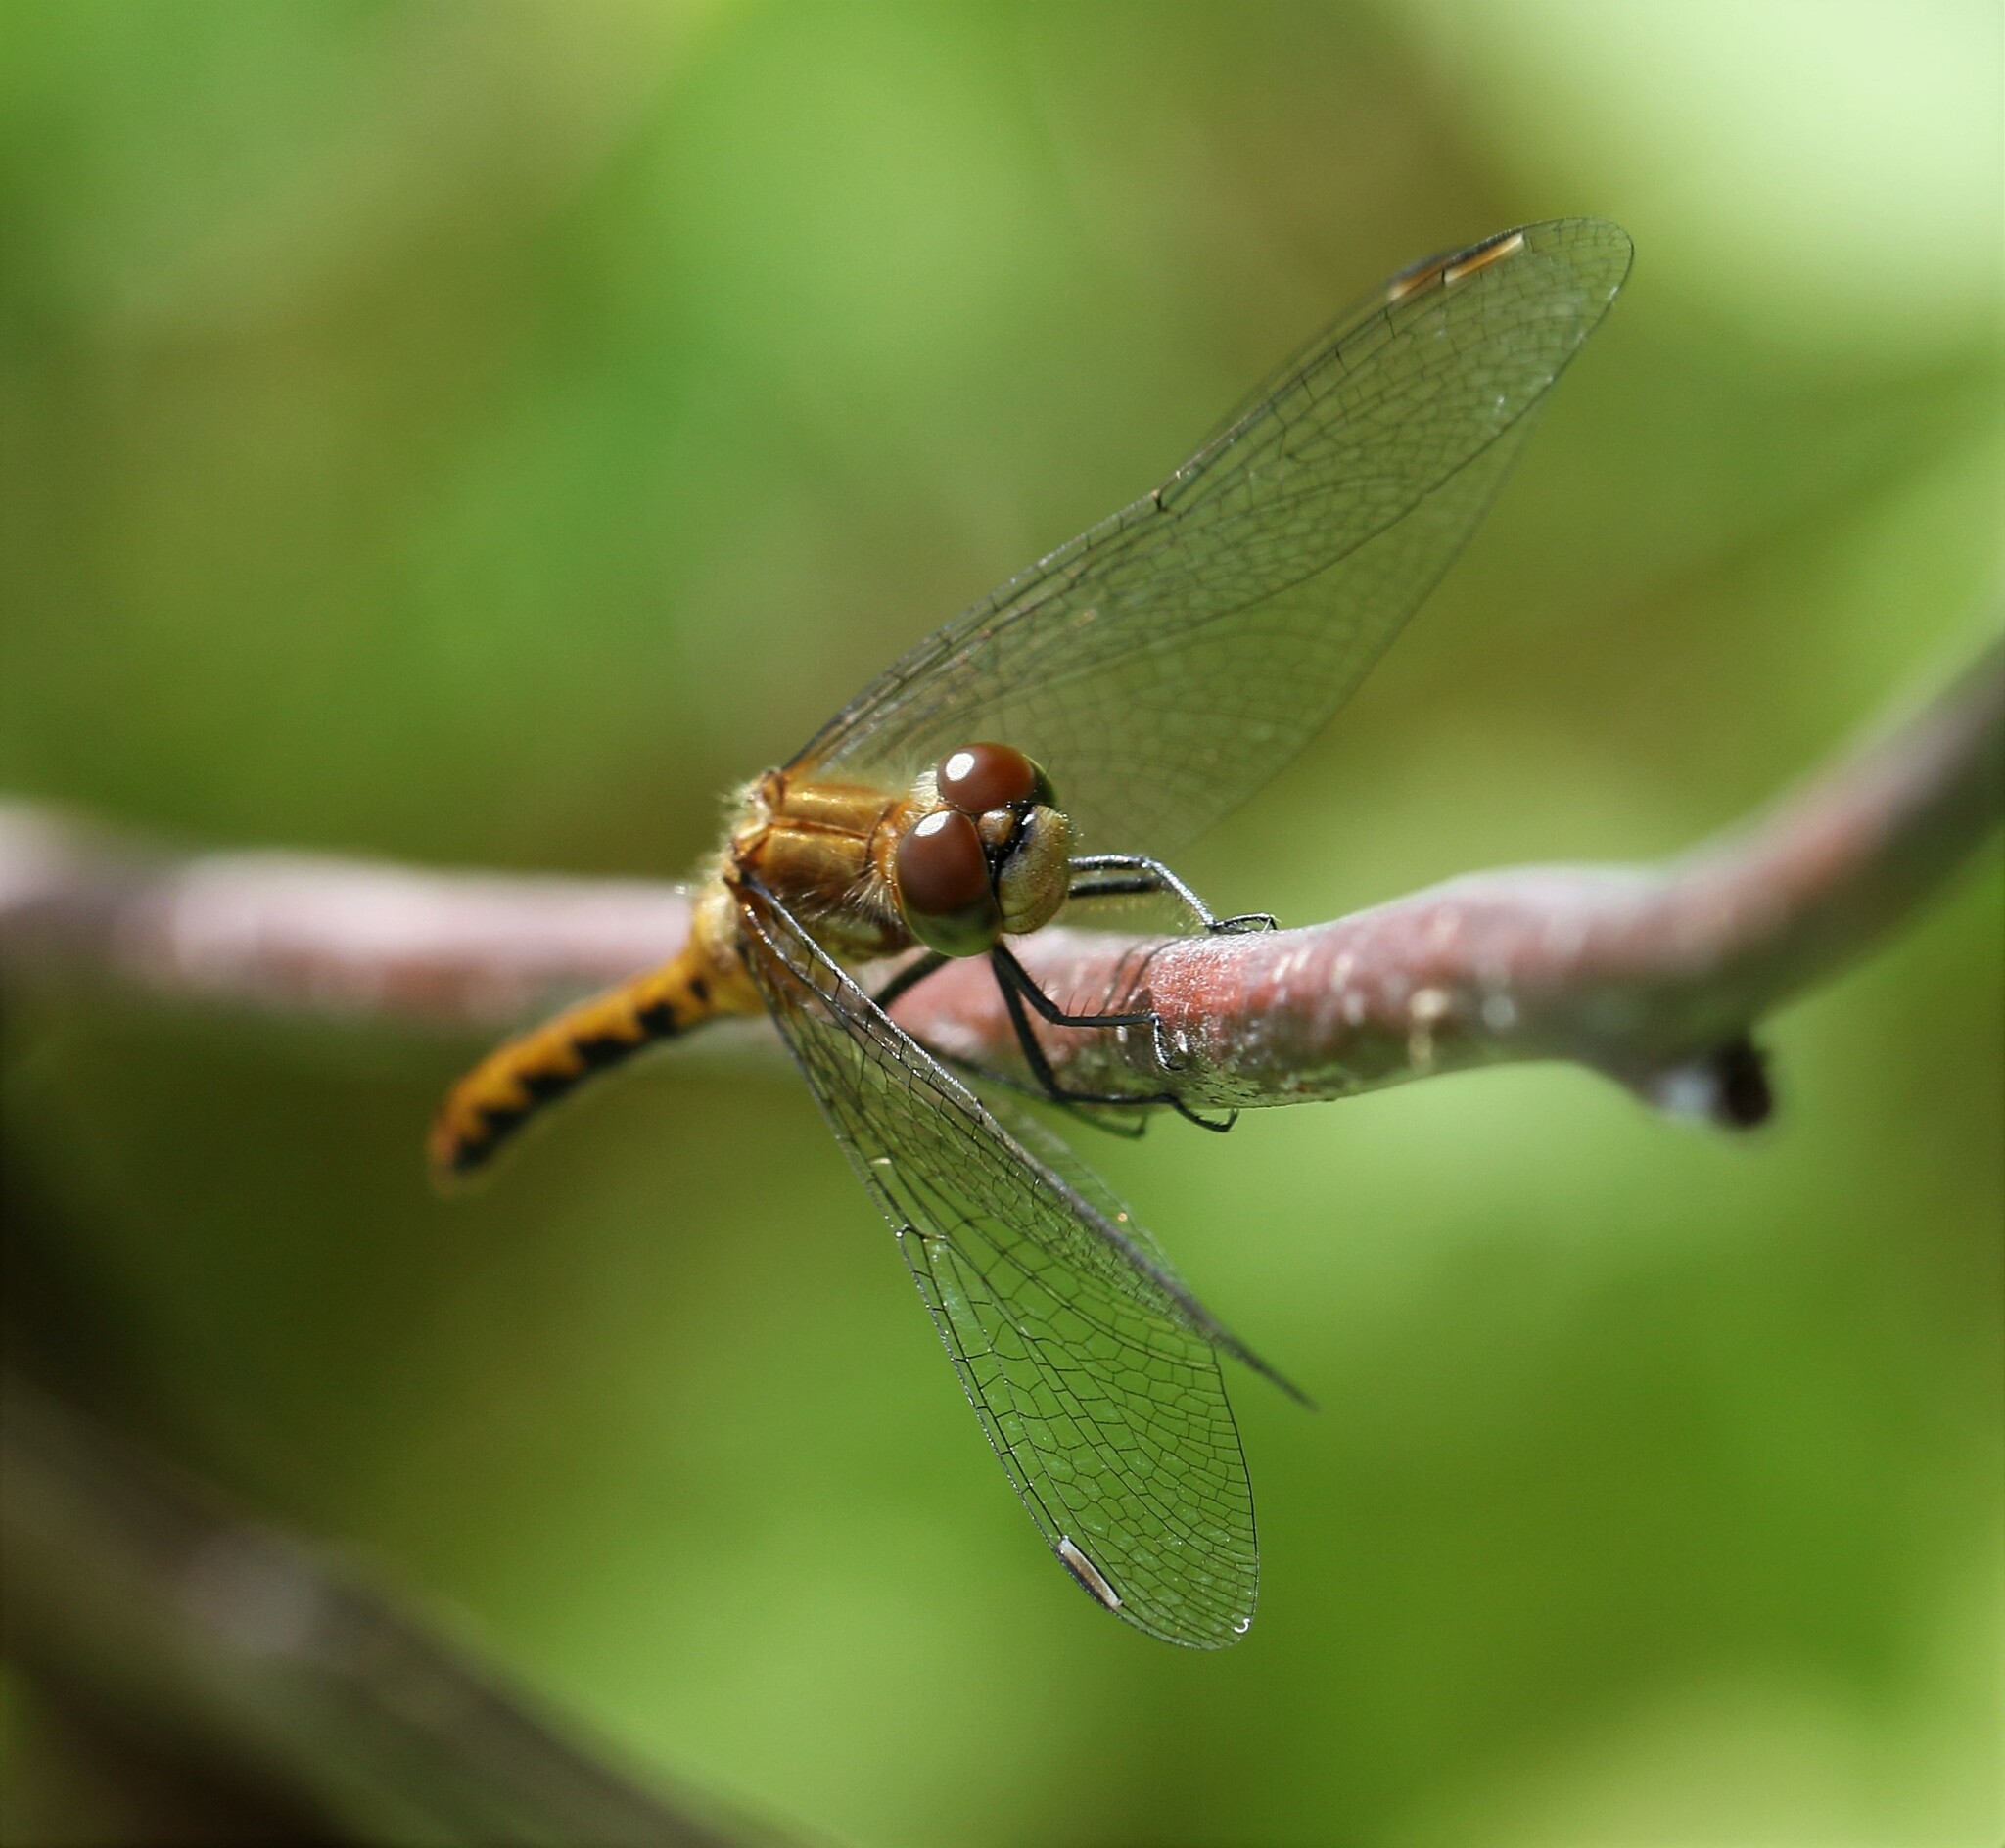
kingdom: Animalia
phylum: Arthropoda
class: Insecta
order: Odonata
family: Libellulidae
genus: Sympetrum
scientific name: Sympetrum obtrusum
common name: White-faced meadowhawk
